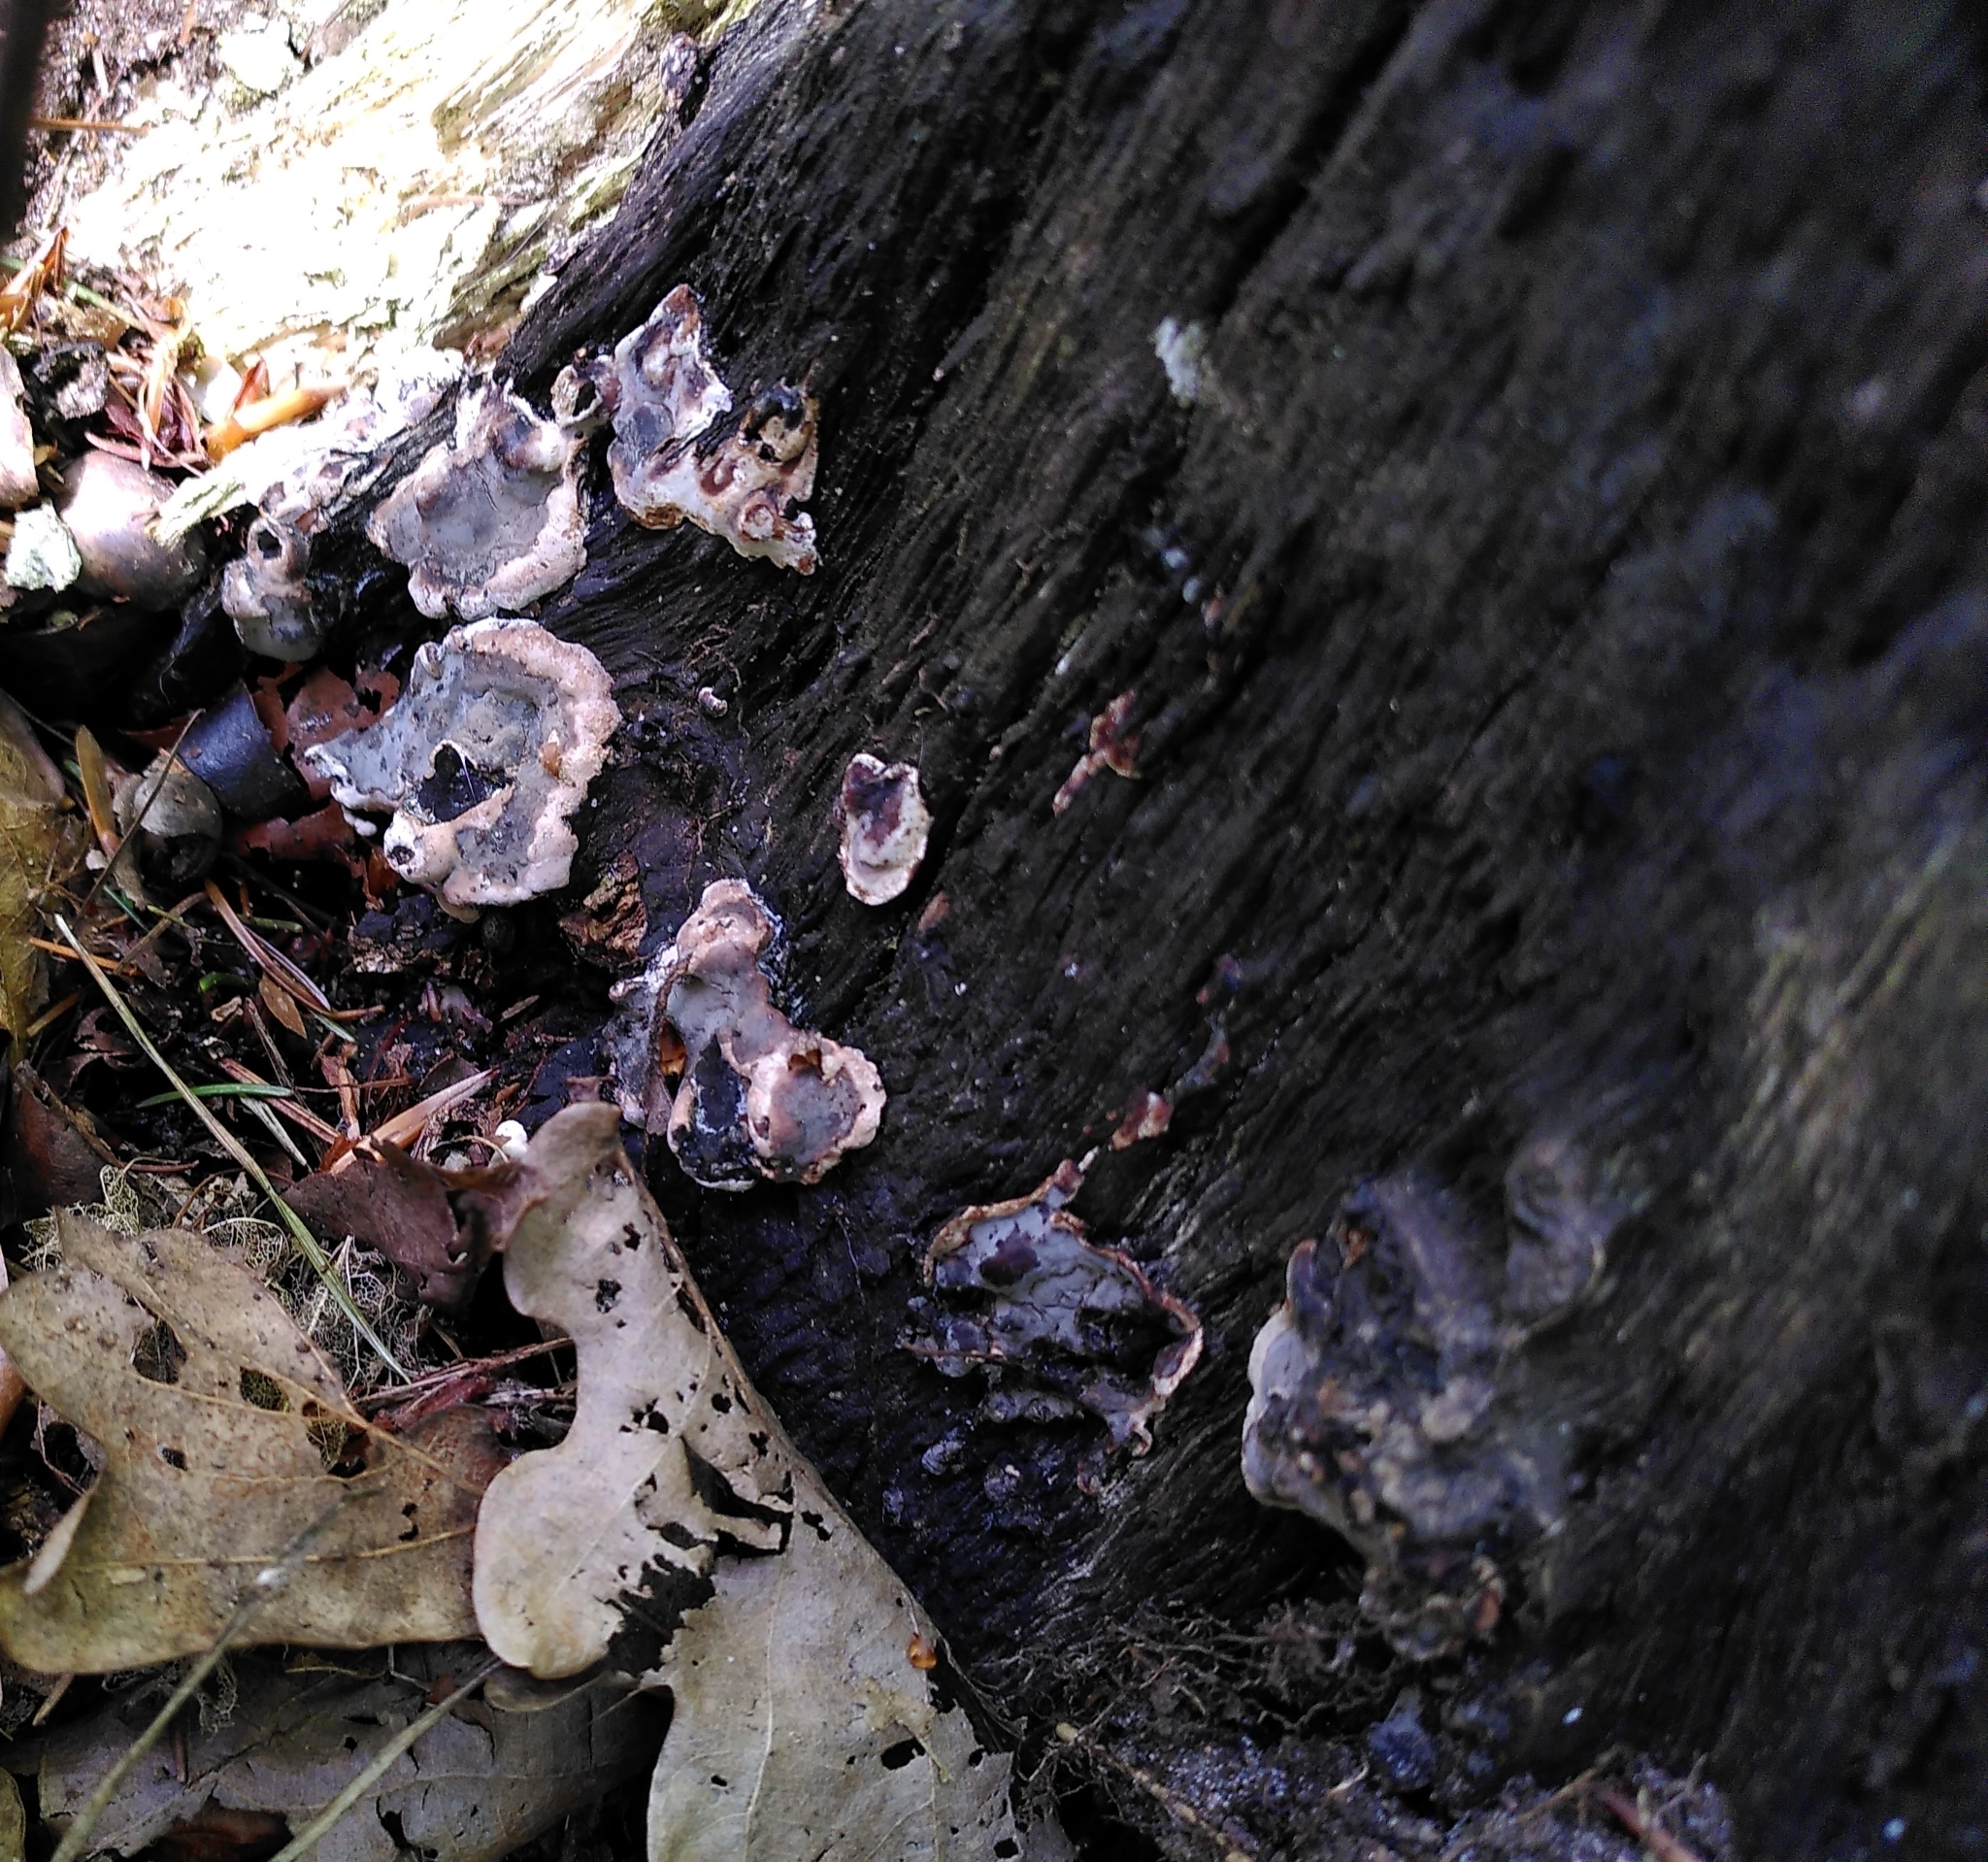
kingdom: Fungi
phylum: Ascomycota
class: Sordariomycetes
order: Xylariales
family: Xylariaceae
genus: Kretzschmaria
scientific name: Kretzschmaria deusta
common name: Brittle cinder
